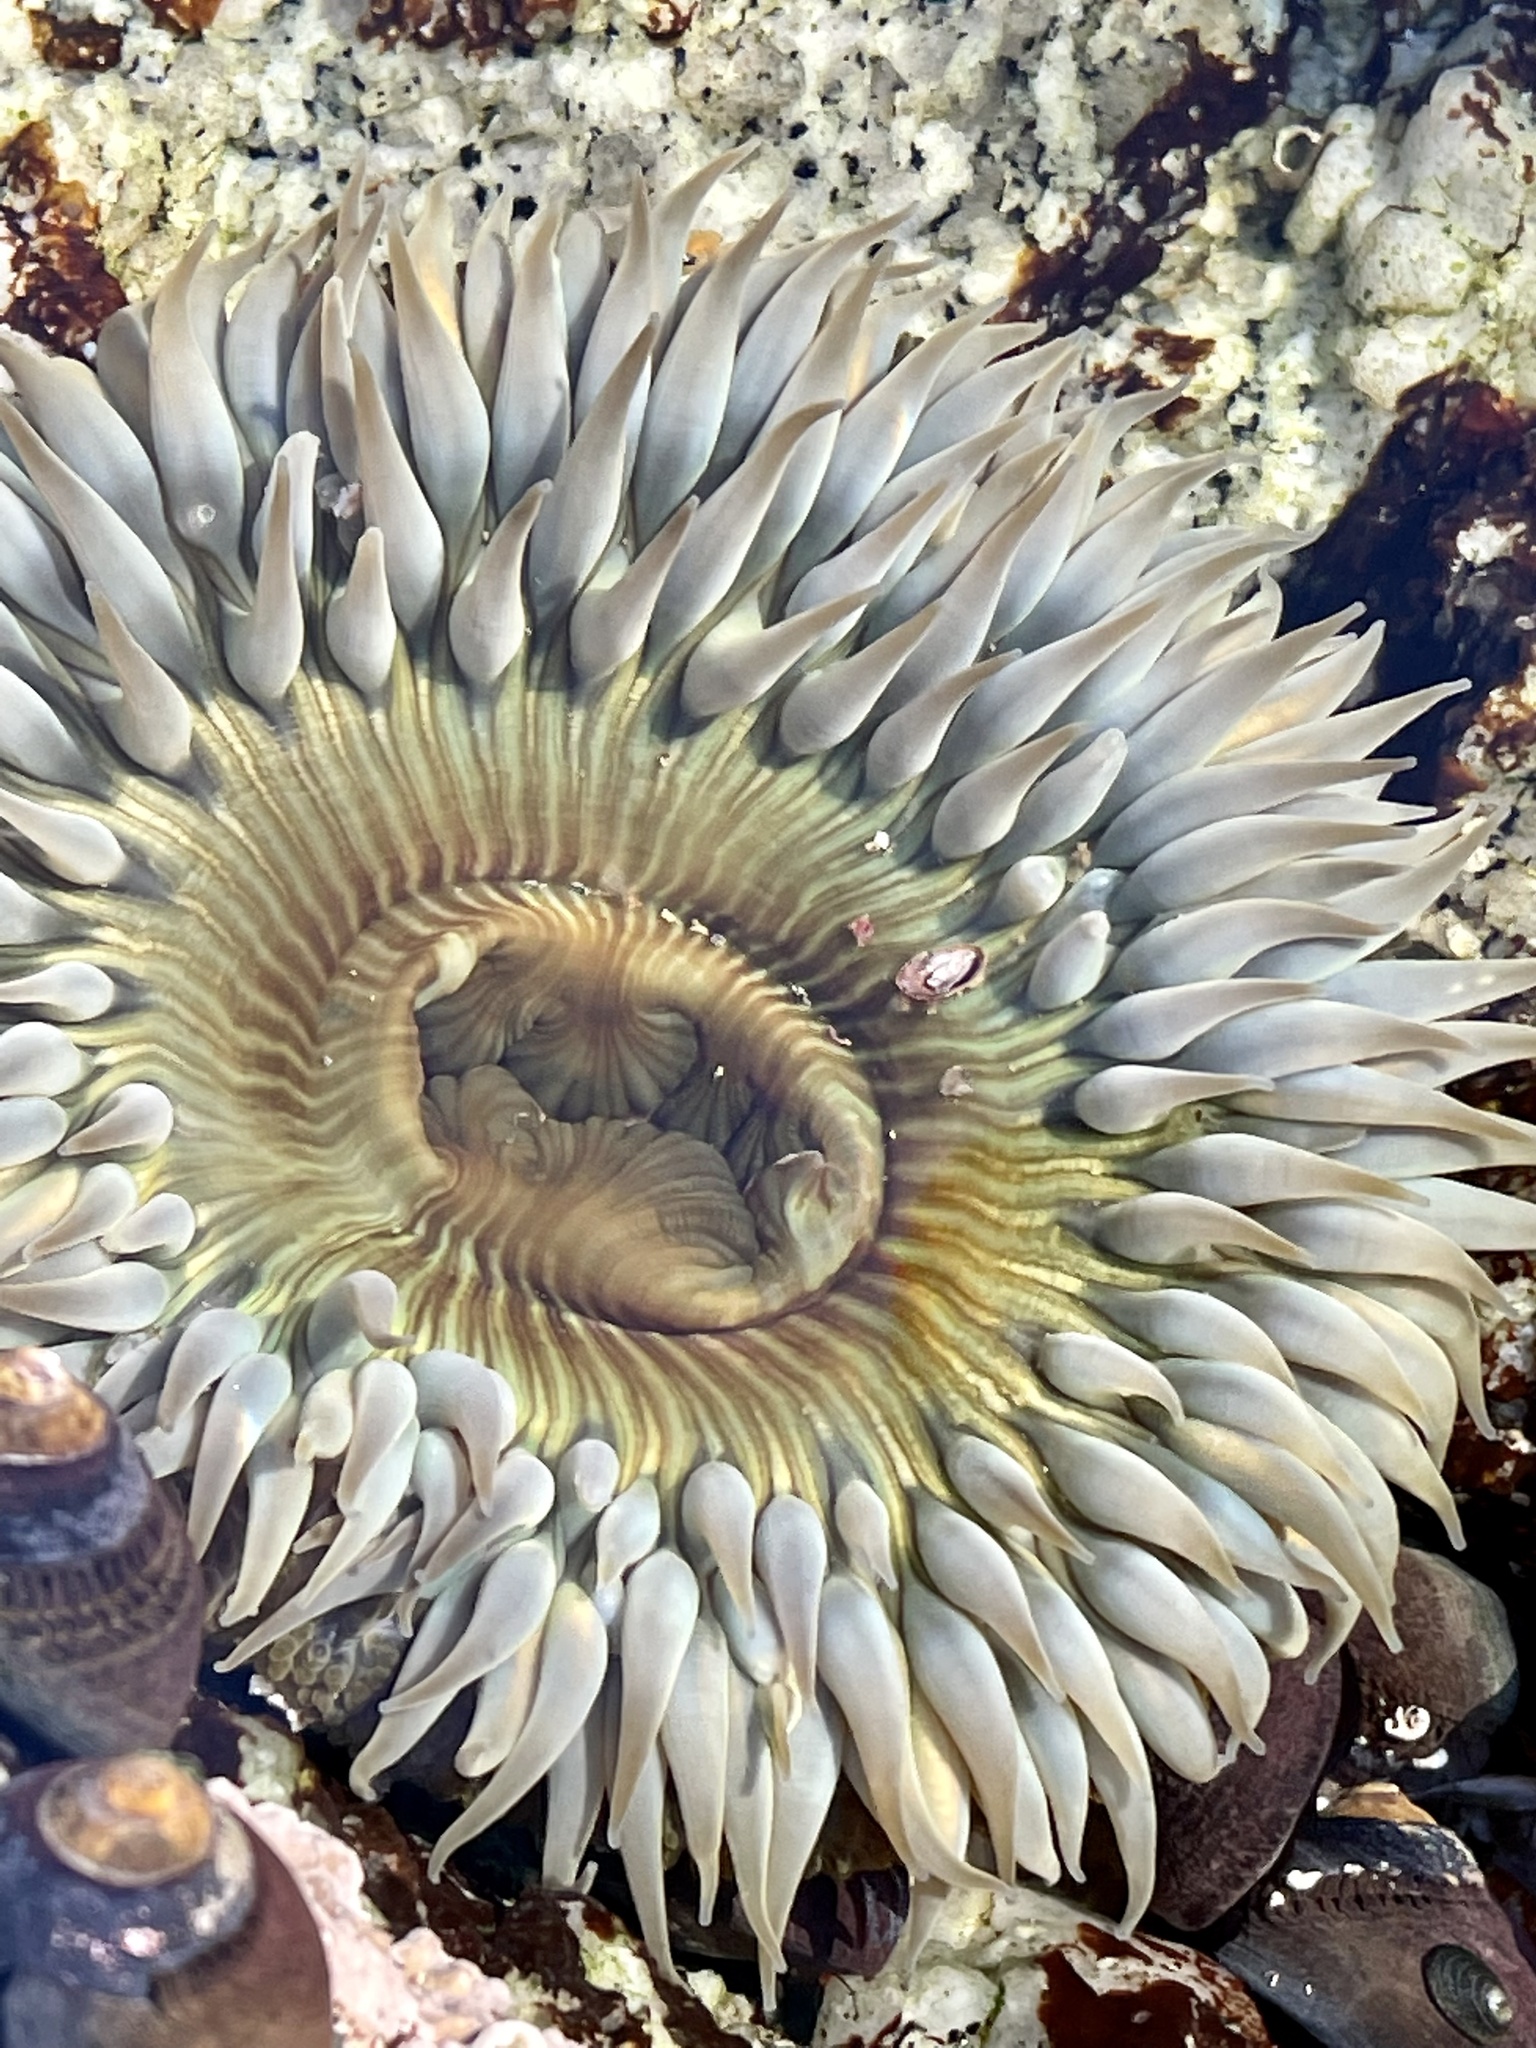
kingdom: Animalia
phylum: Cnidaria
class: Anthozoa
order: Actiniaria
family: Actiniidae
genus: Anthopleura
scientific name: Anthopleura sola
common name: Sun anemone
